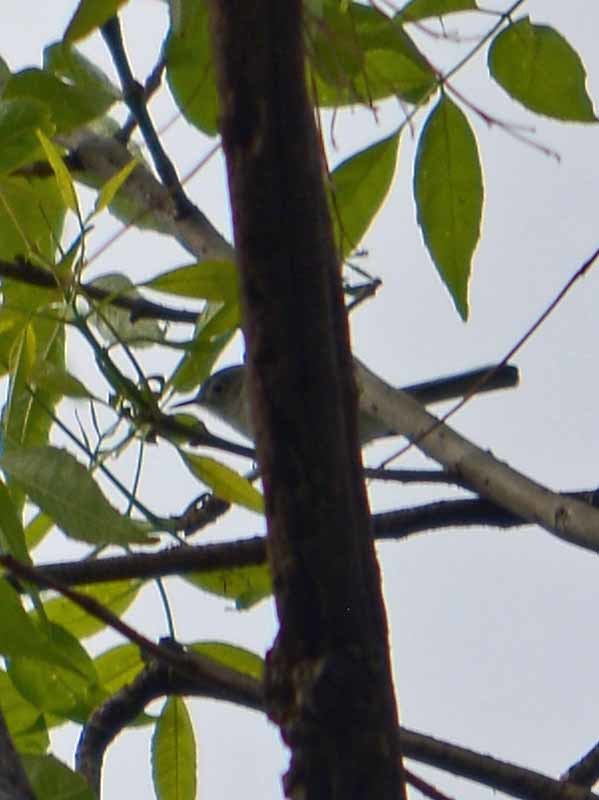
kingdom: Animalia
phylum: Chordata
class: Aves
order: Passeriformes
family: Polioptilidae
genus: Polioptila
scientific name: Polioptila caerulea
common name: Blue-gray gnatcatcher
